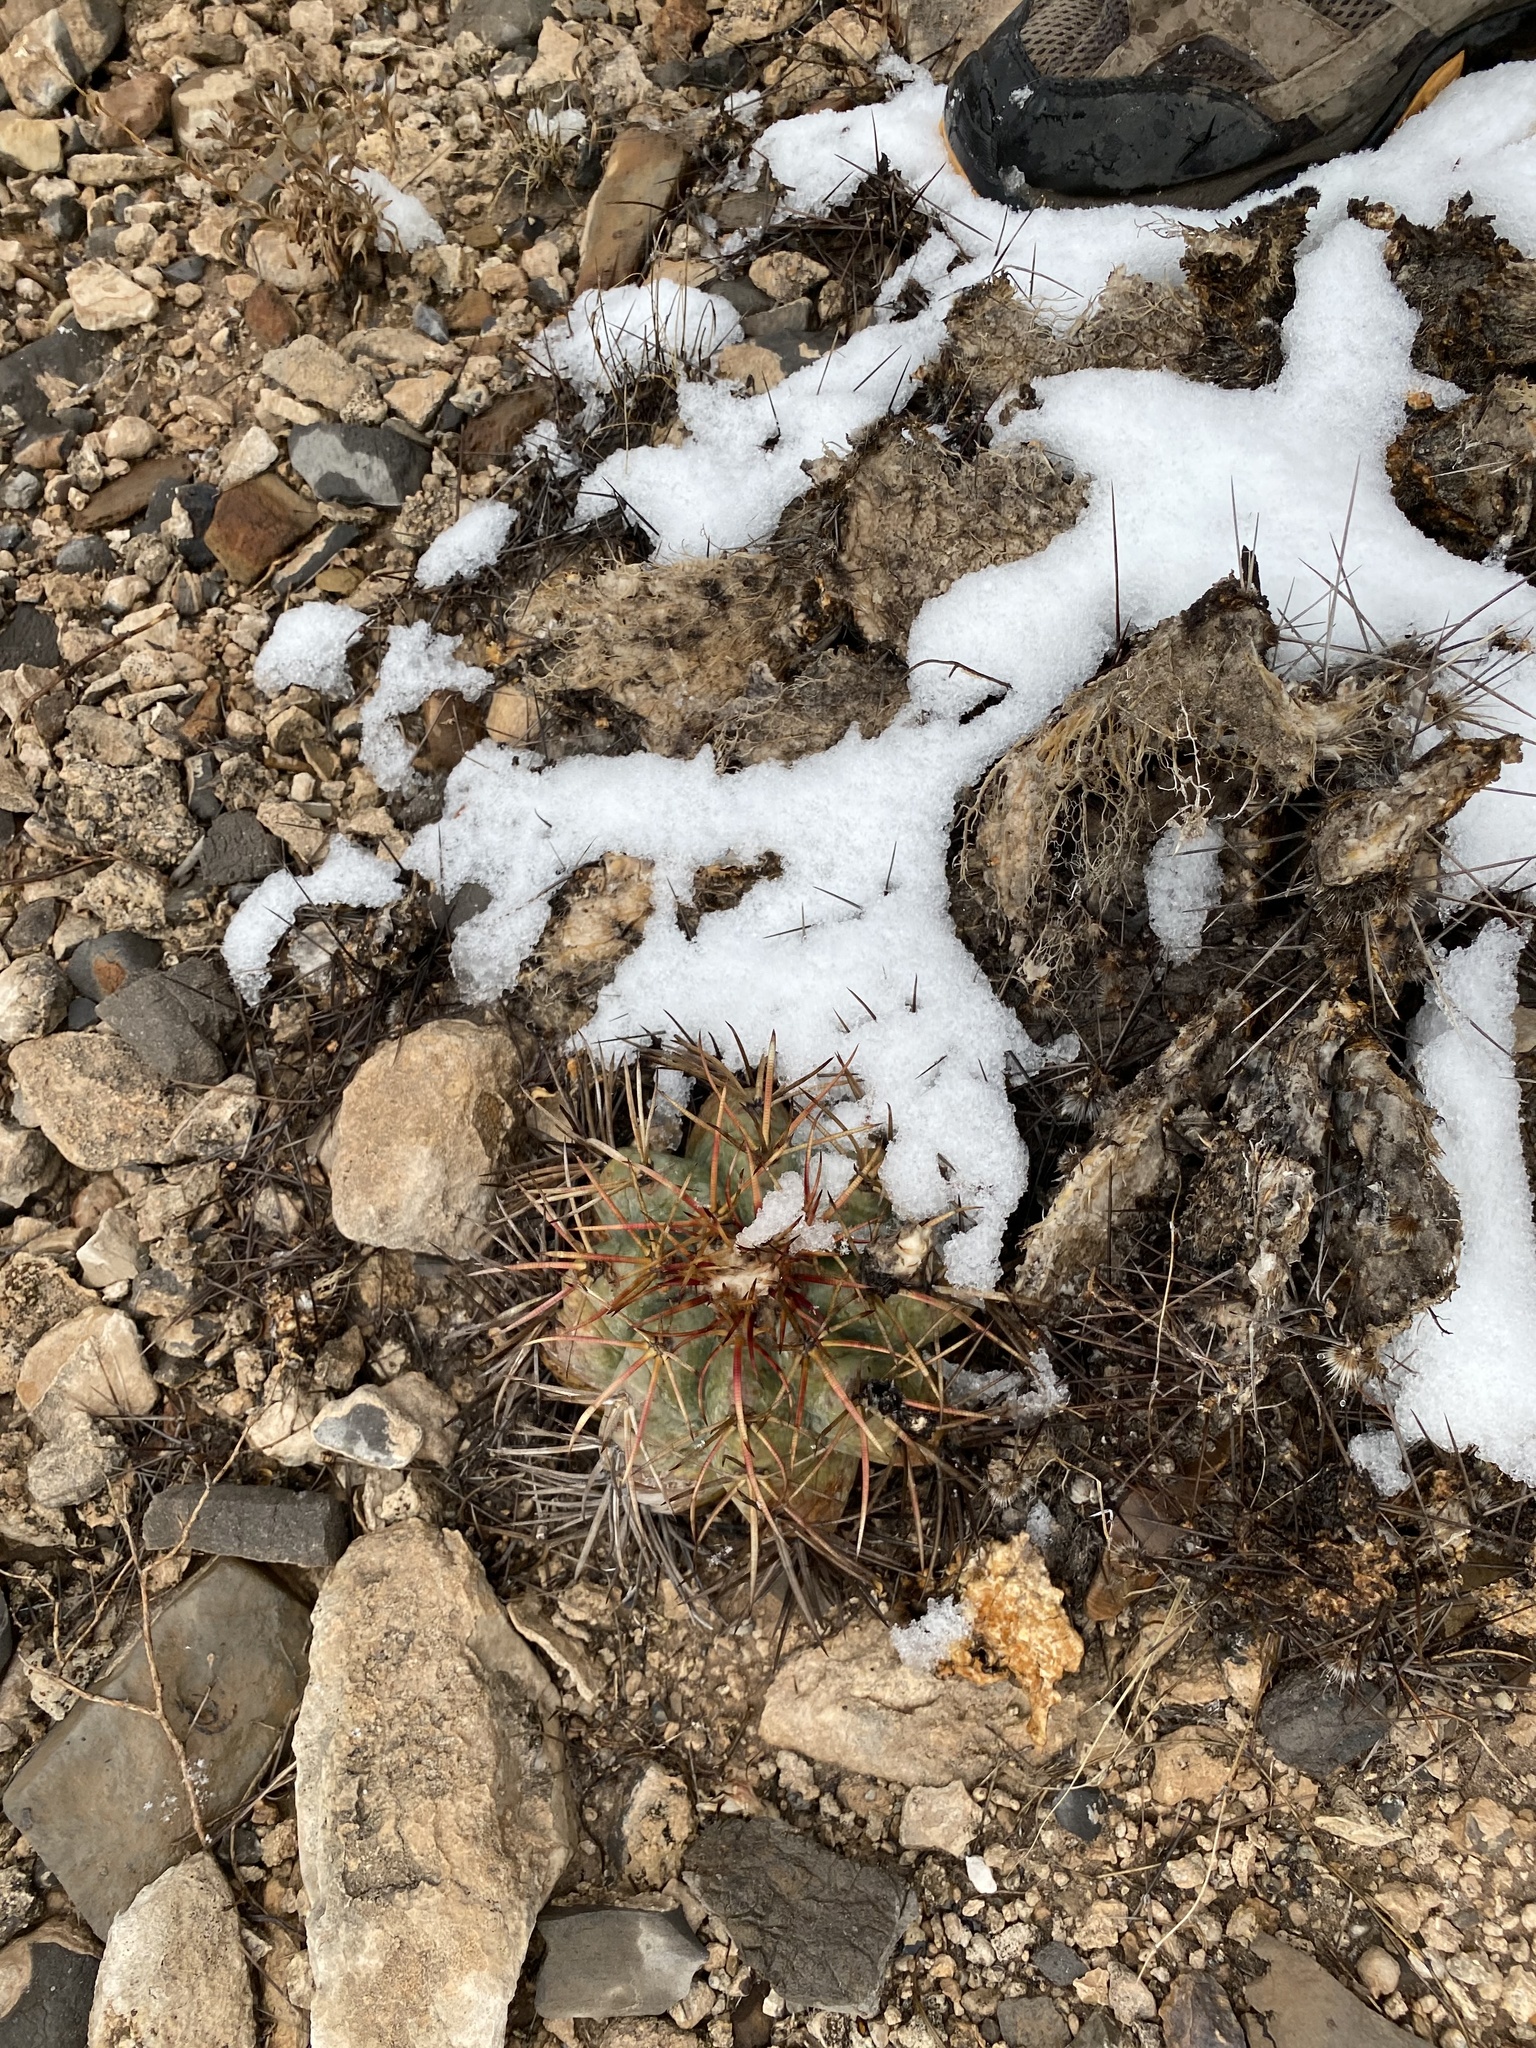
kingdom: Plantae
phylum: Tracheophyta
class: Magnoliopsida
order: Caryophyllales
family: Cactaceae
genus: Echinocactus
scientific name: Echinocactus horizonthalonius
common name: Devilshead
